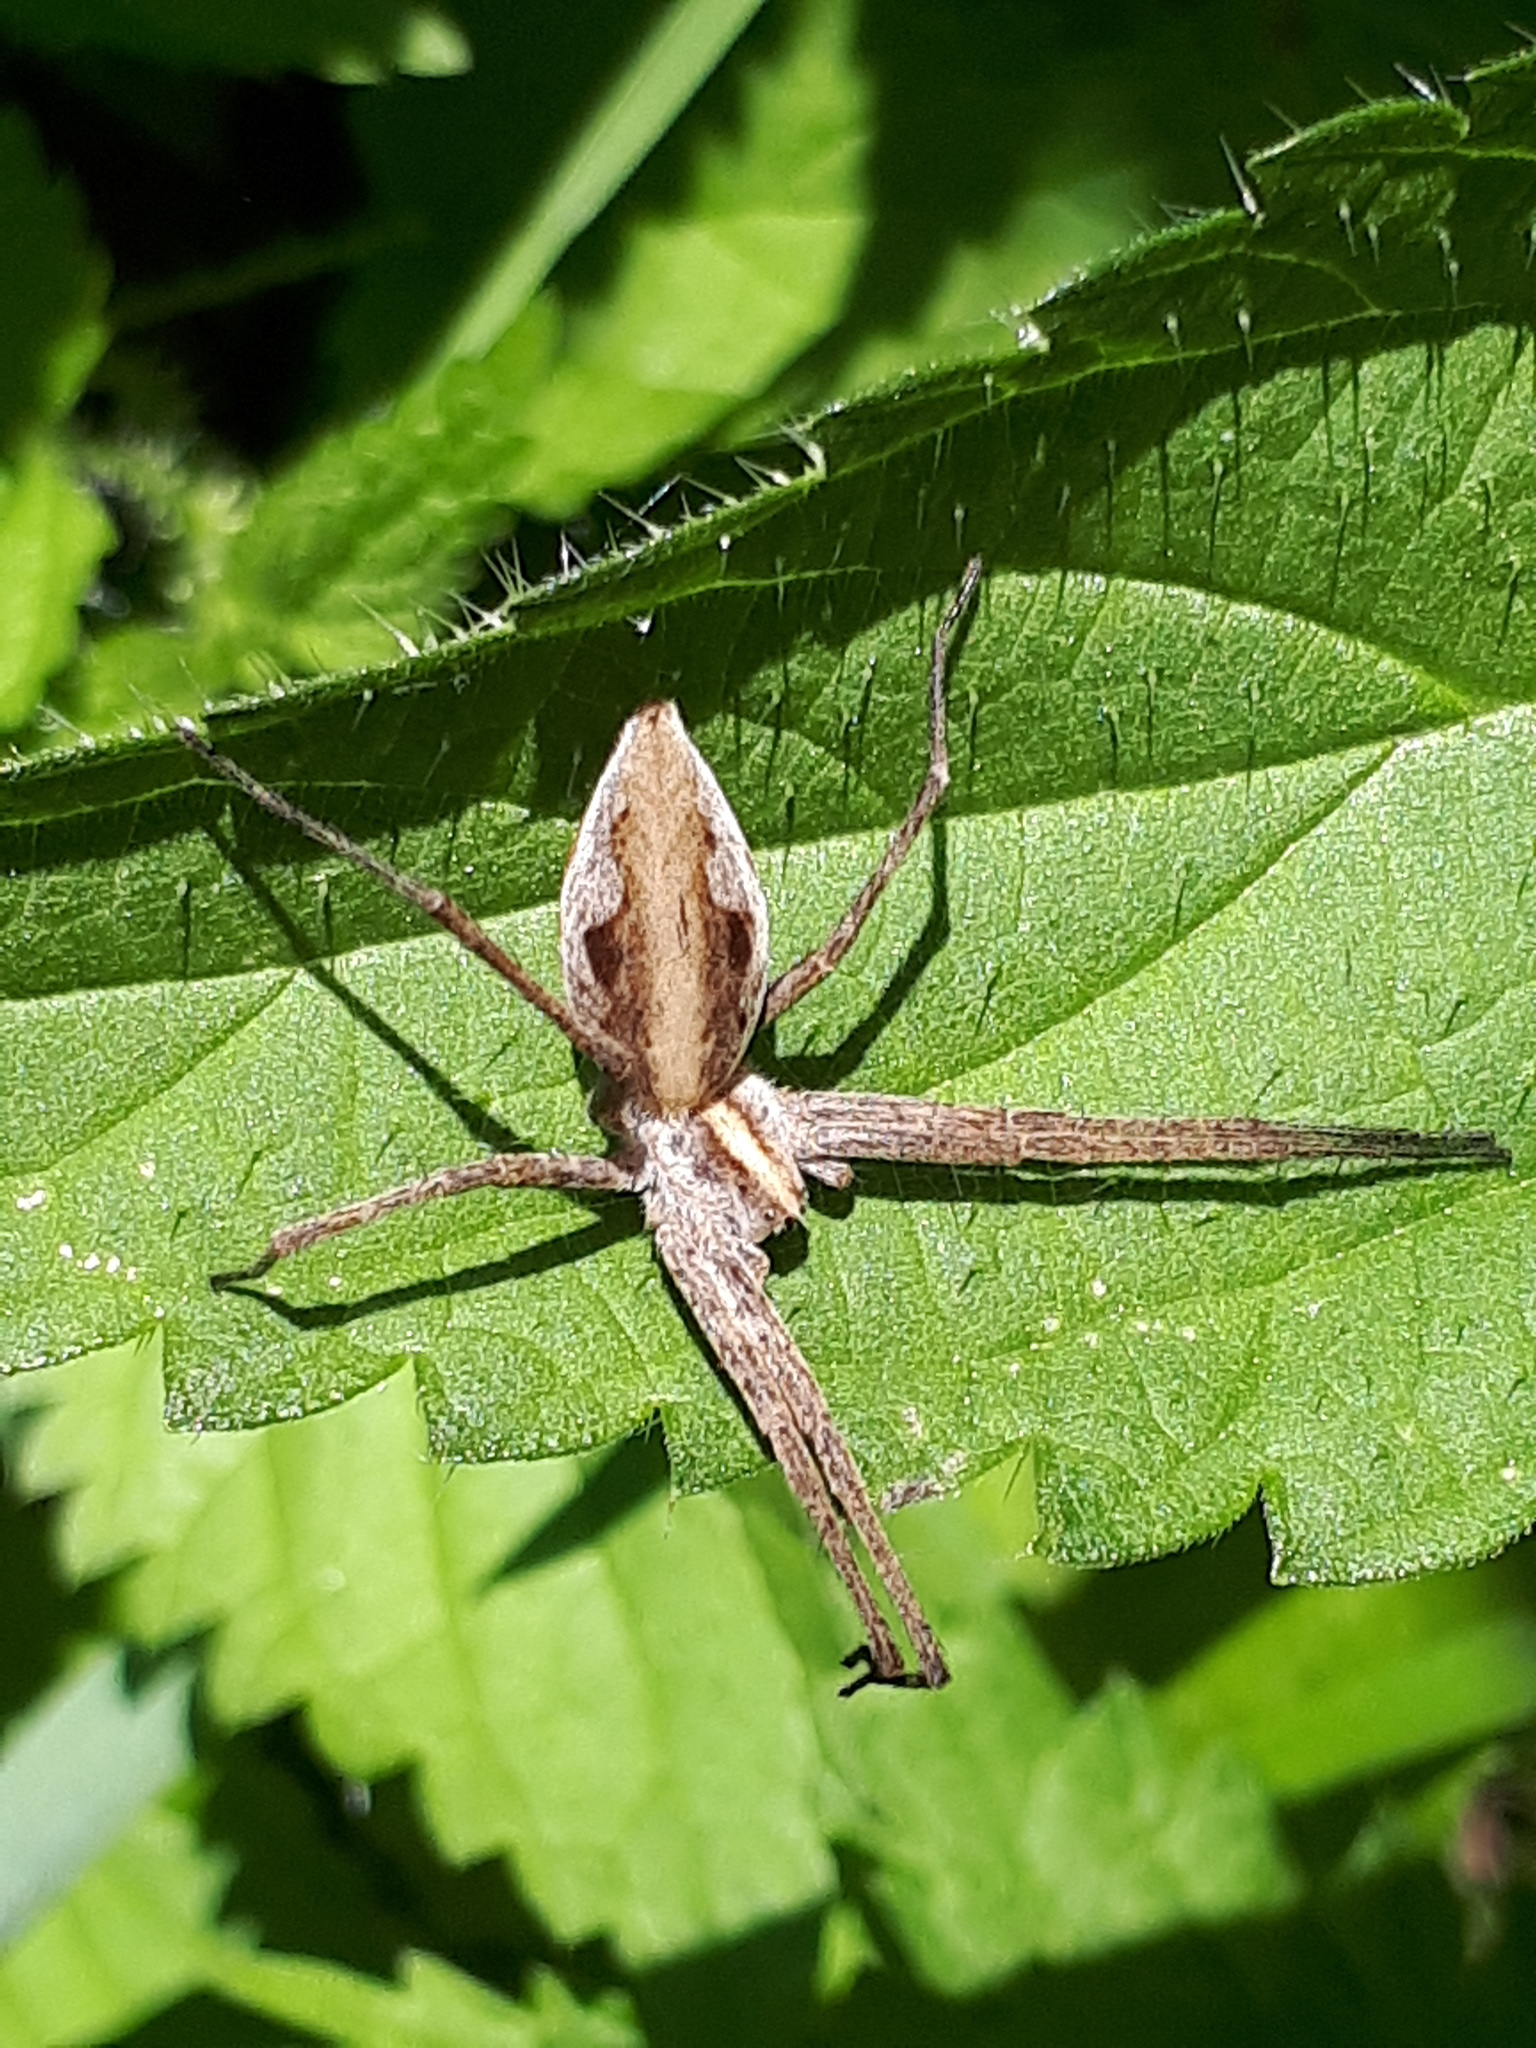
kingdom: Animalia
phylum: Arthropoda
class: Arachnida
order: Araneae
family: Pisauridae
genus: Pisaura
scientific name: Pisaura mirabilis
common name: Tent spider
